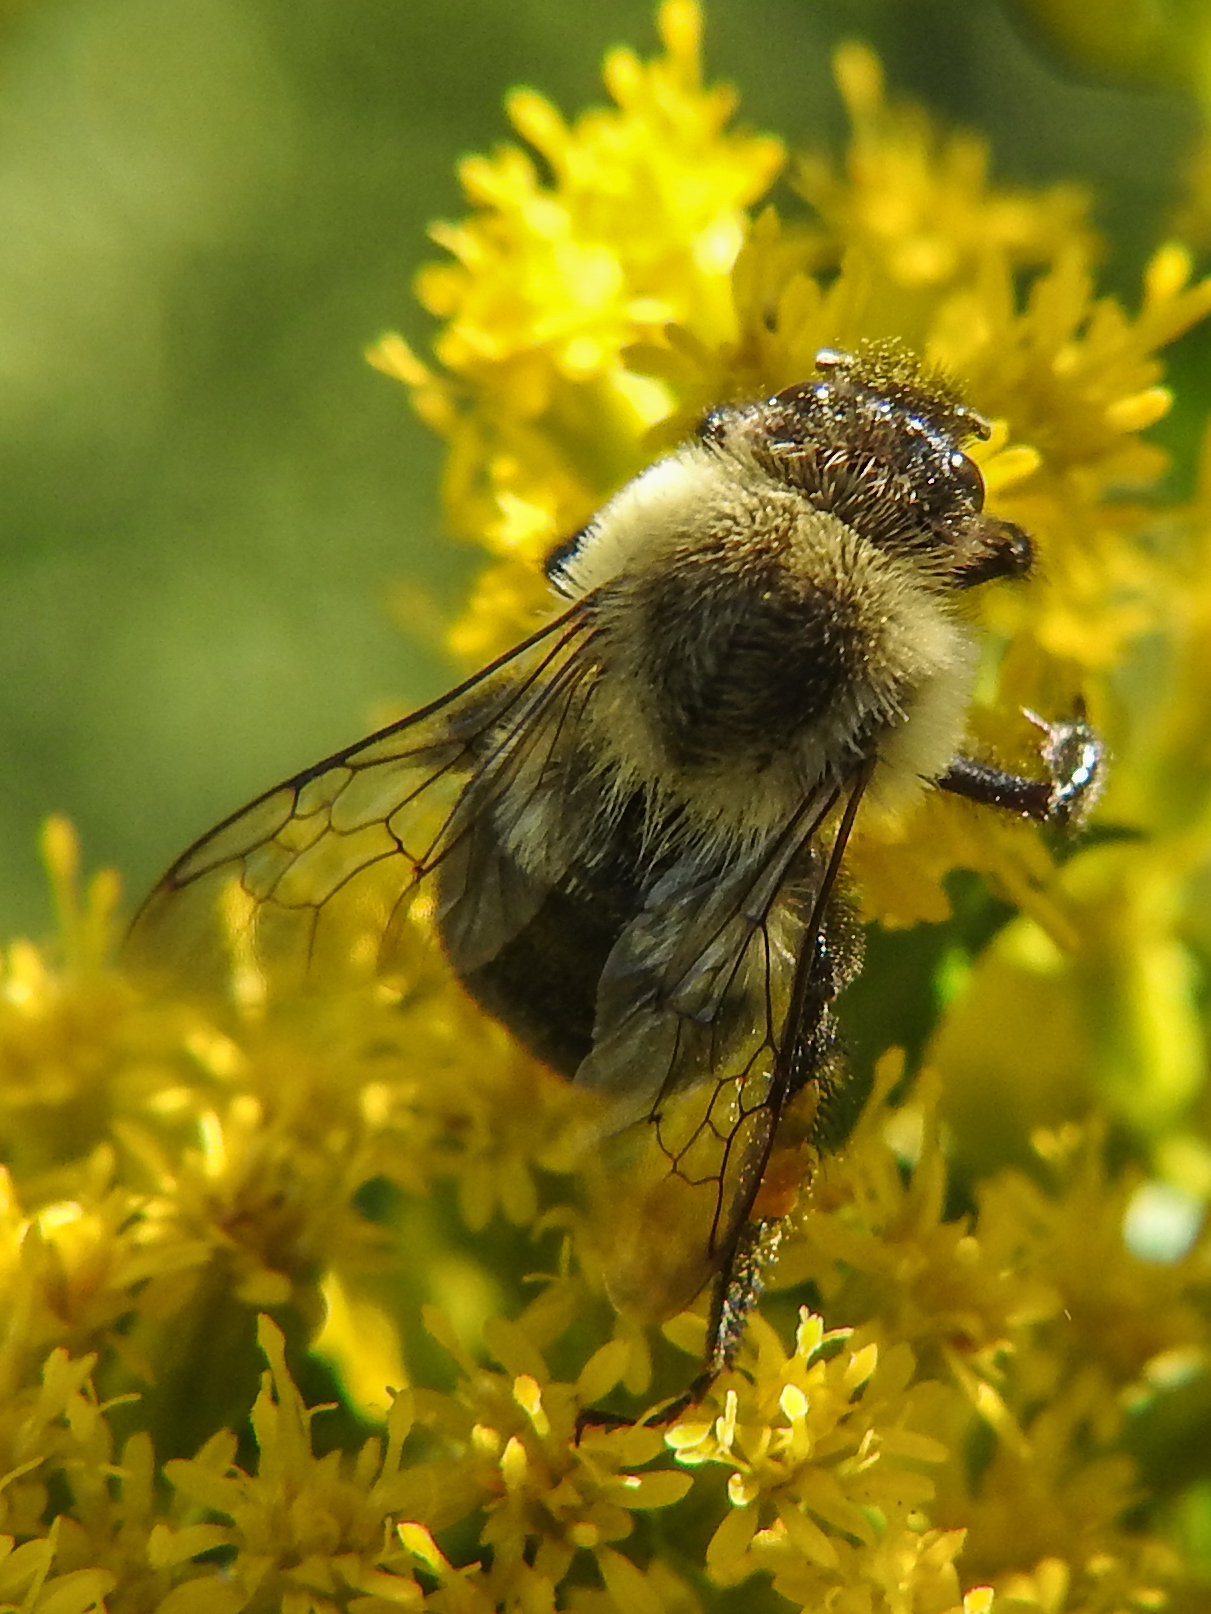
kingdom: Animalia
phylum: Arthropoda
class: Insecta
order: Hymenoptera
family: Apidae
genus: Bombus
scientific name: Bombus impatiens
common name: Common eastern bumble bee
